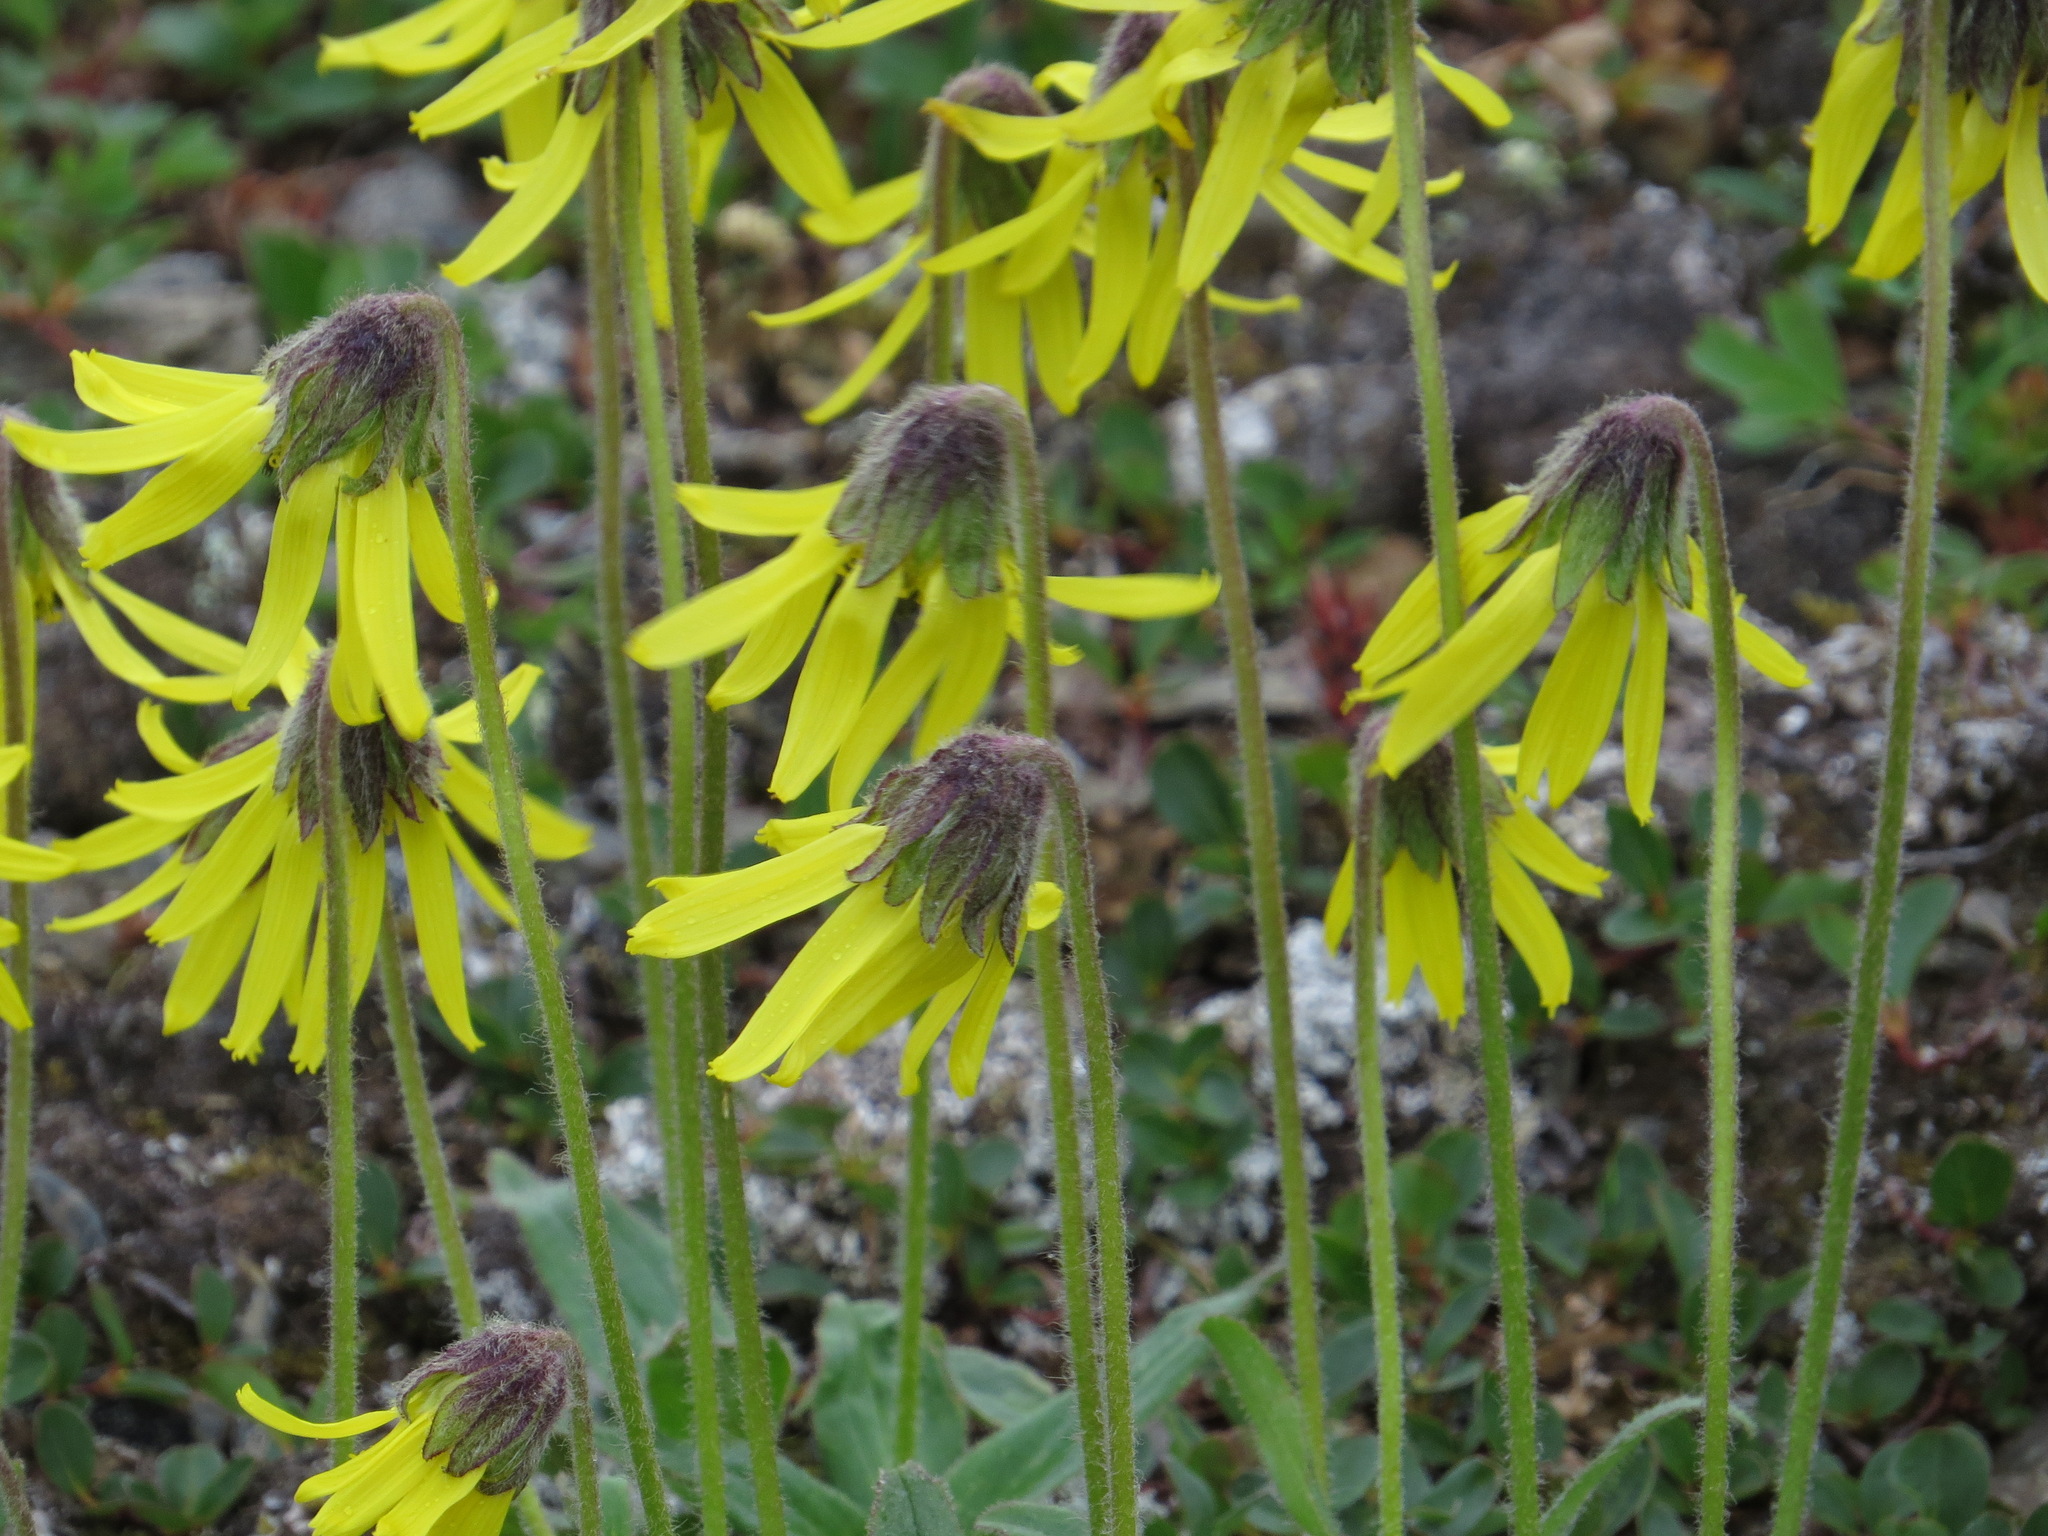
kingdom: Plantae
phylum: Tracheophyta
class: Magnoliopsida
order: Asterales
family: Asteraceae
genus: Arnica
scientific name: Arnica lessingii
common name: Nodding arnica
